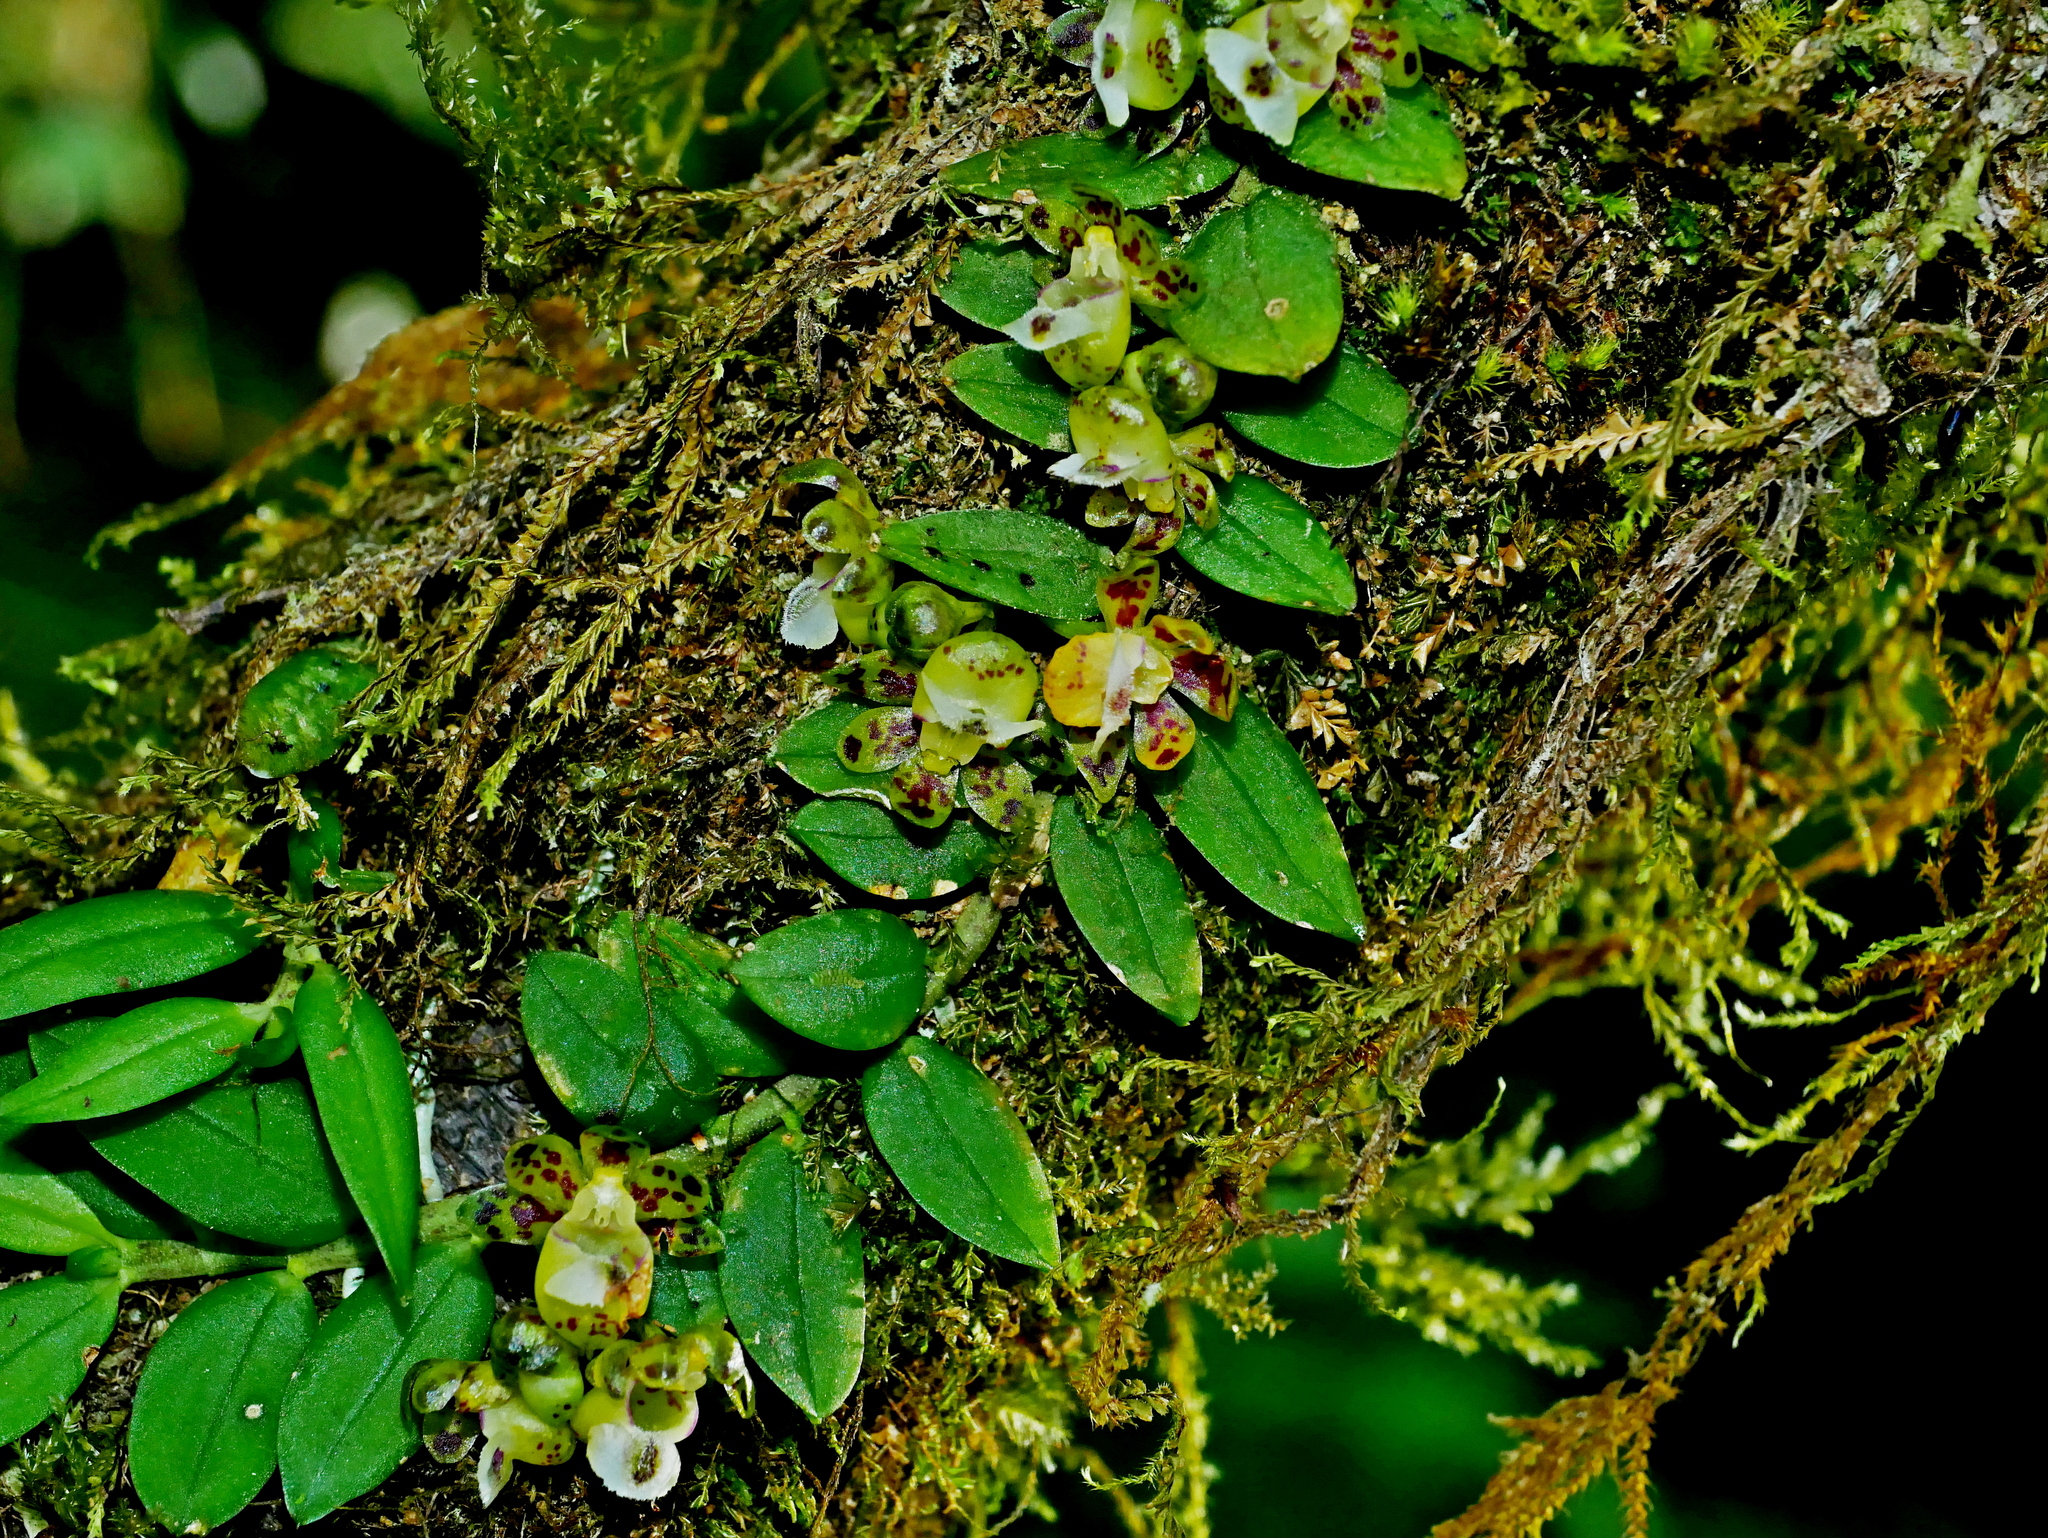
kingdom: Plantae
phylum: Tracheophyta
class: Liliopsida
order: Asparagales
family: Orchidaceae
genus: Gastrochilus
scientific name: Gastrochilus formosanus
